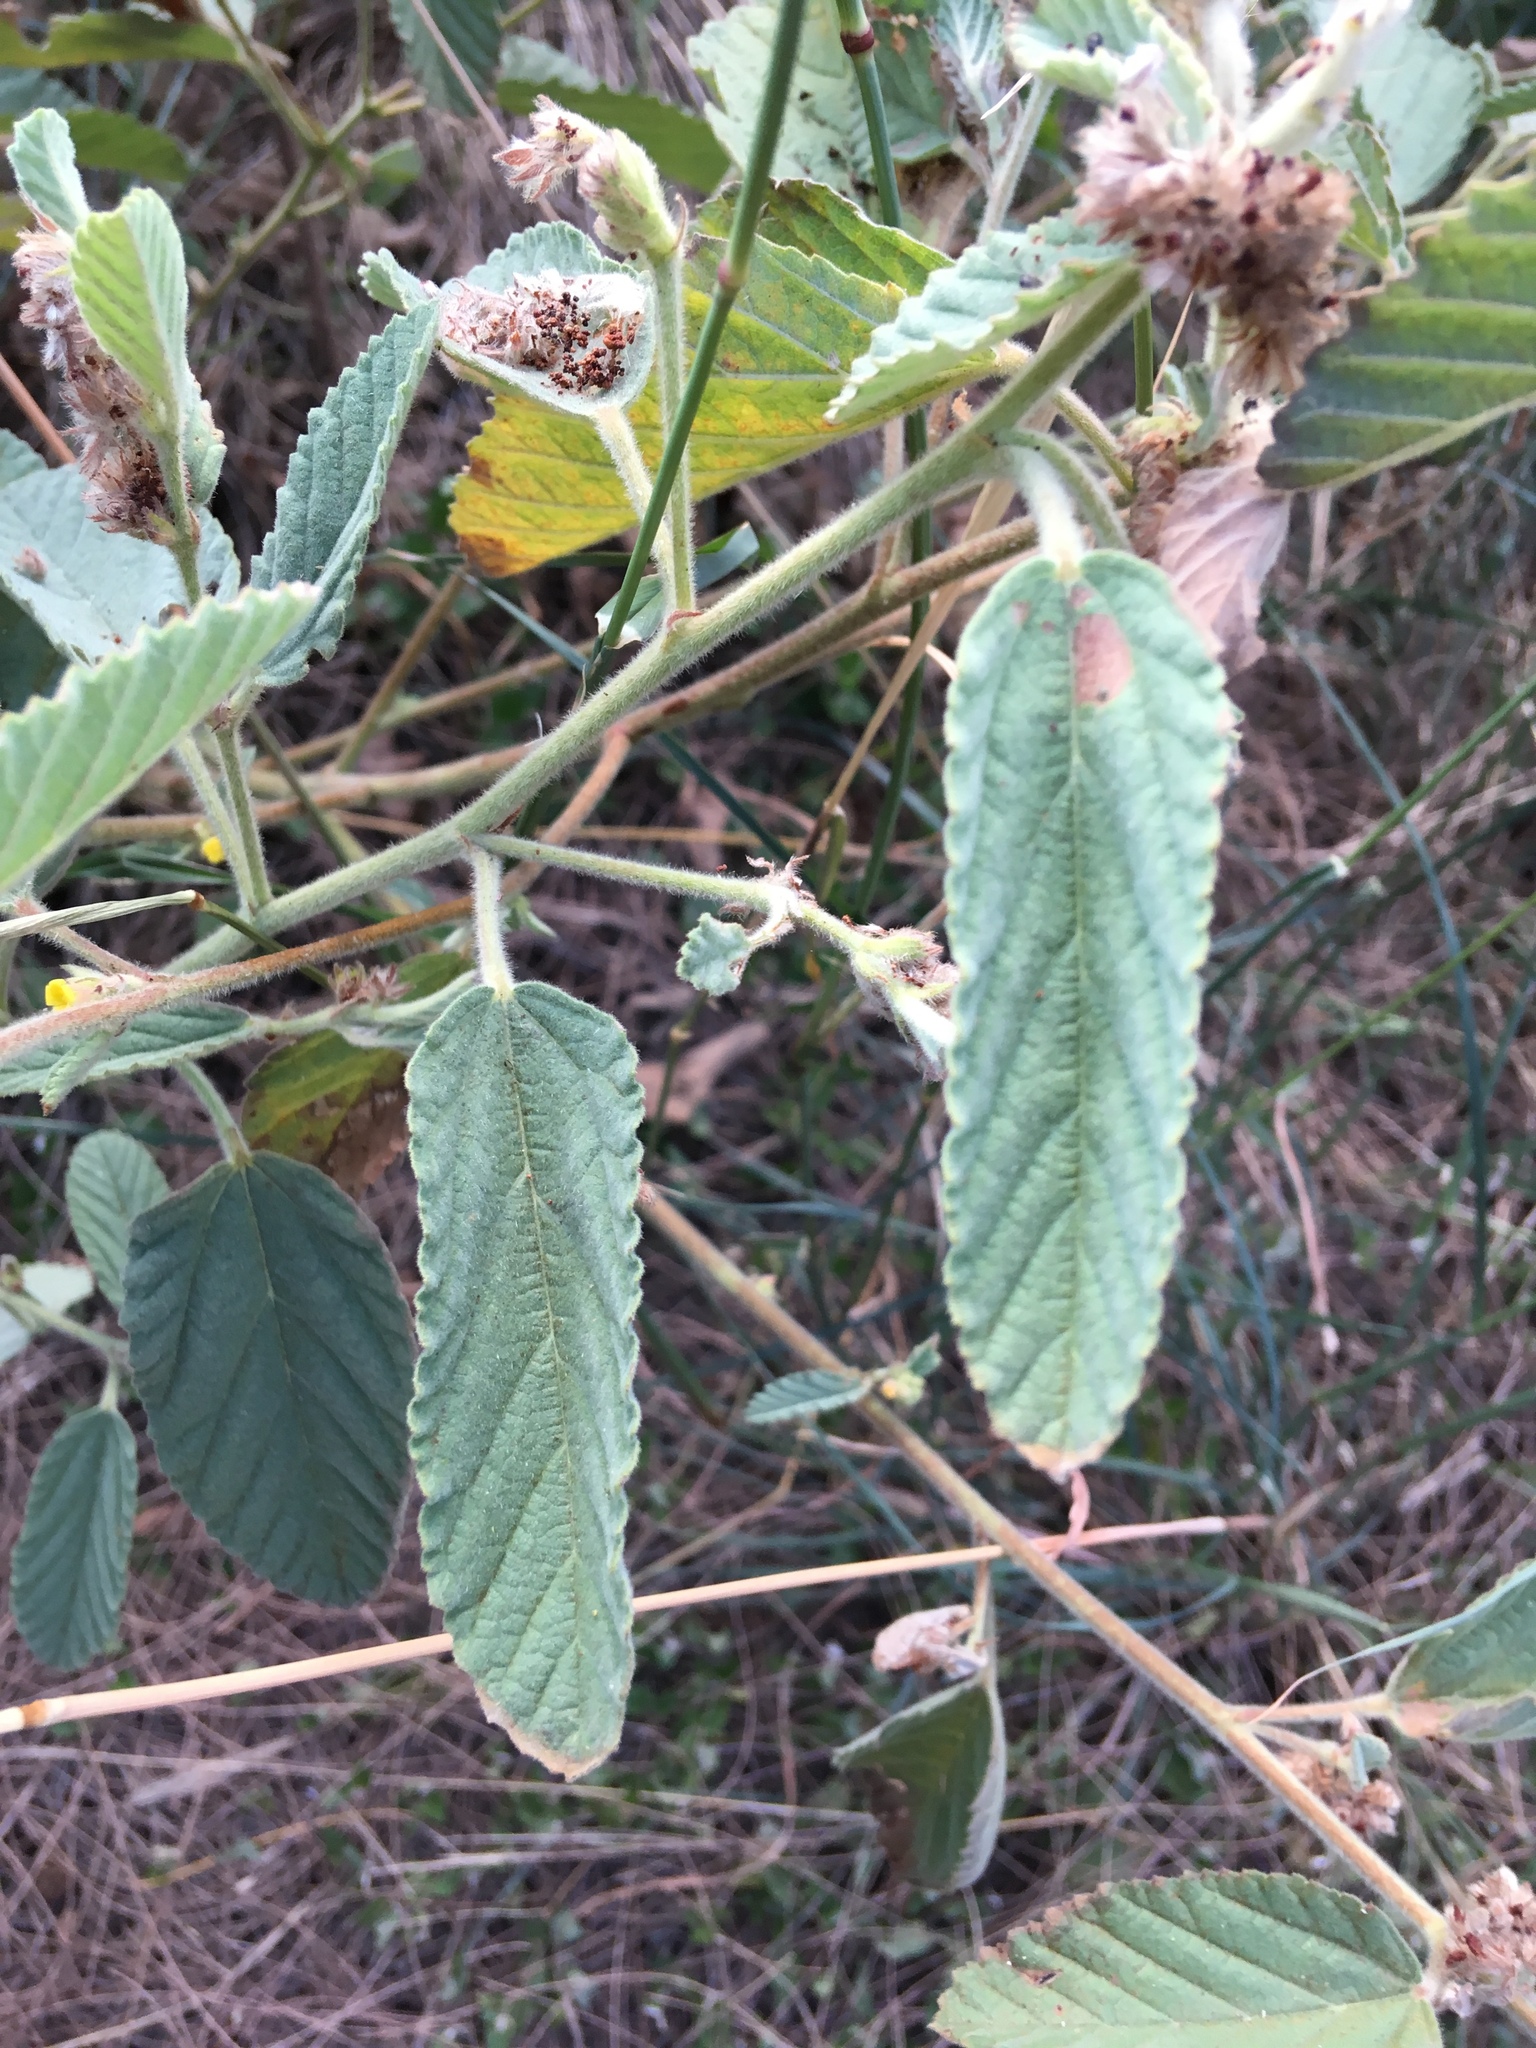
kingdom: Plantae
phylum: Tracheophyta
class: Magnoliopsida
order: Malvales
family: Malvaceae
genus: Waltheria
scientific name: Waltheria indica
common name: Leather-coat
